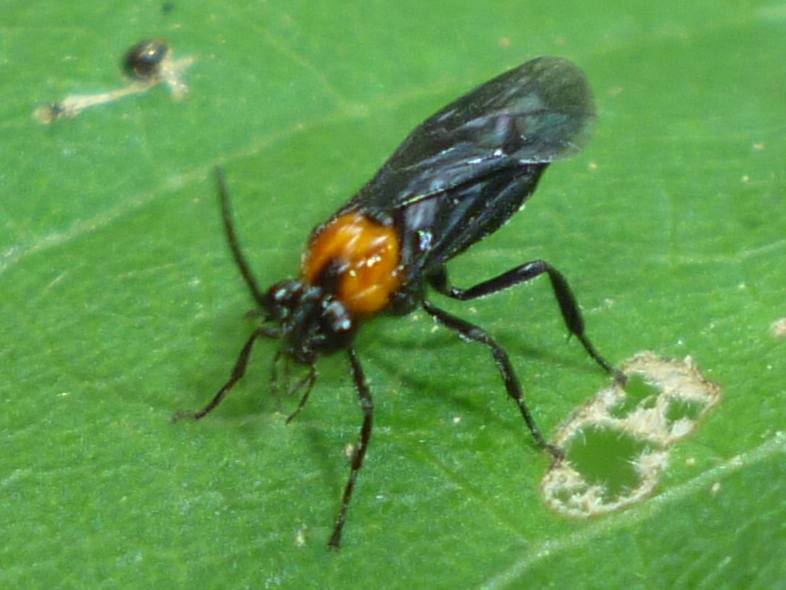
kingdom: Animalia
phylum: Arthropoda
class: Insecta
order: Hymenoptera
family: Argidae
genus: Atomacera
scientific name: Atomacera
